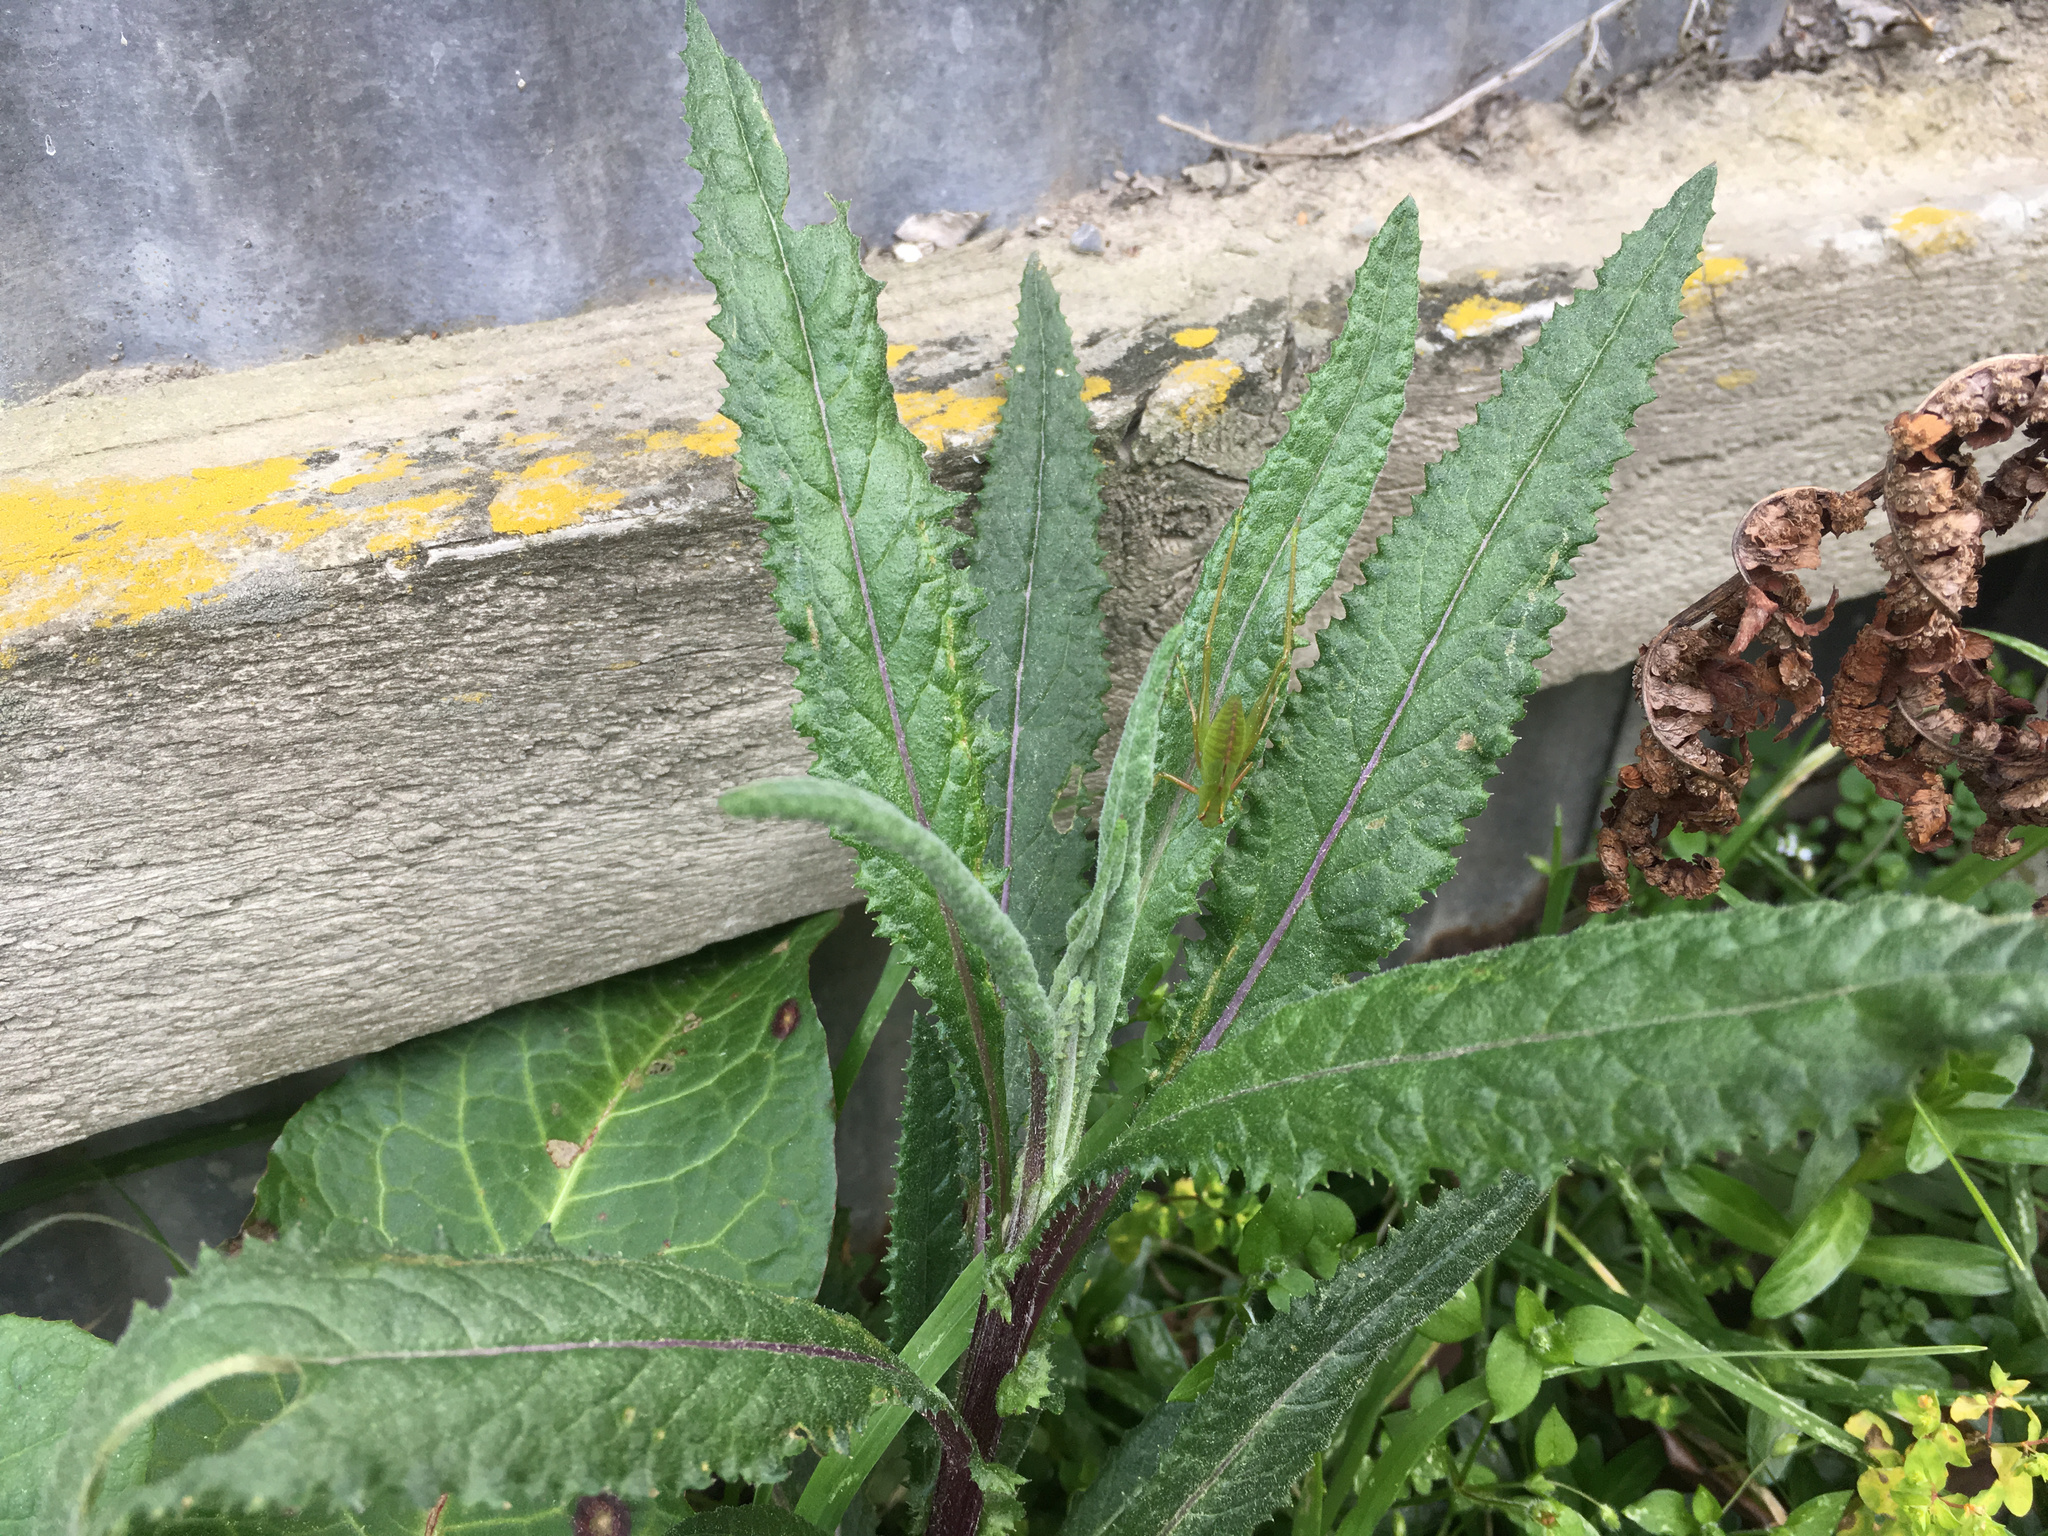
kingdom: Plantae
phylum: Tracheophyta
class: Magnoliopsida
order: Asterales
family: Asteraceae
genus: Senecio
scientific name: Senecio minimus
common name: Toothed fireweed
